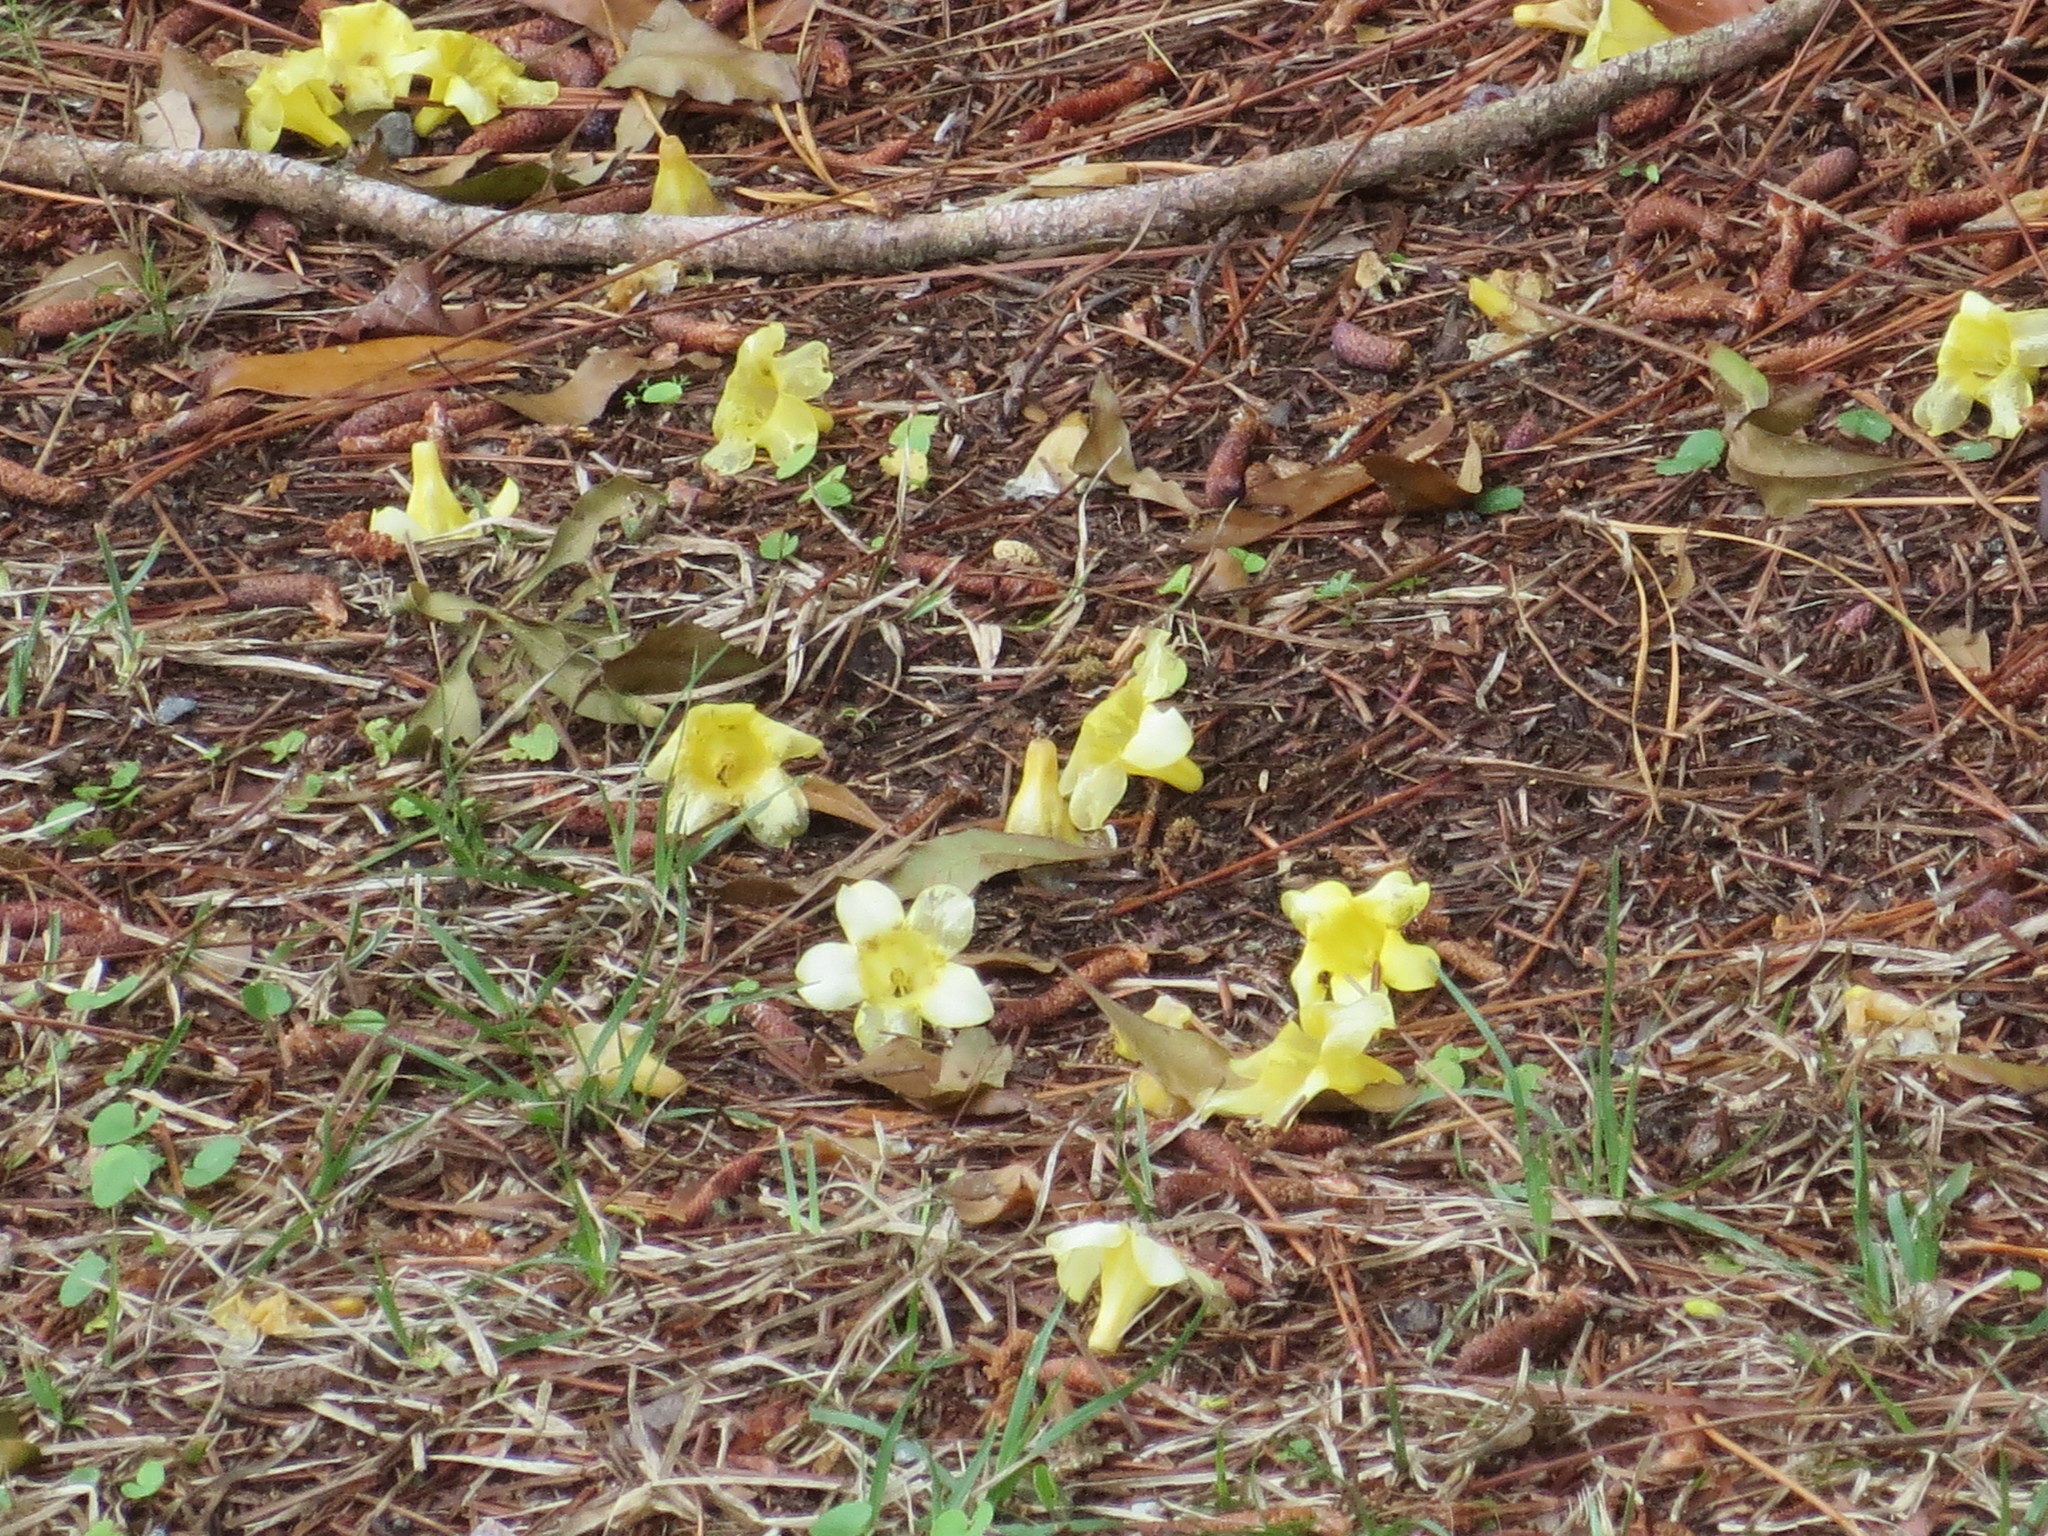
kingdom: Plantae
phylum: Tracheophyta
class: Magnoliopsida
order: Gentianales
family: Gelsemiaceae
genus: Gelsemium
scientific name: Gelsemium sempervirens
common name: Carolina-jasmine
